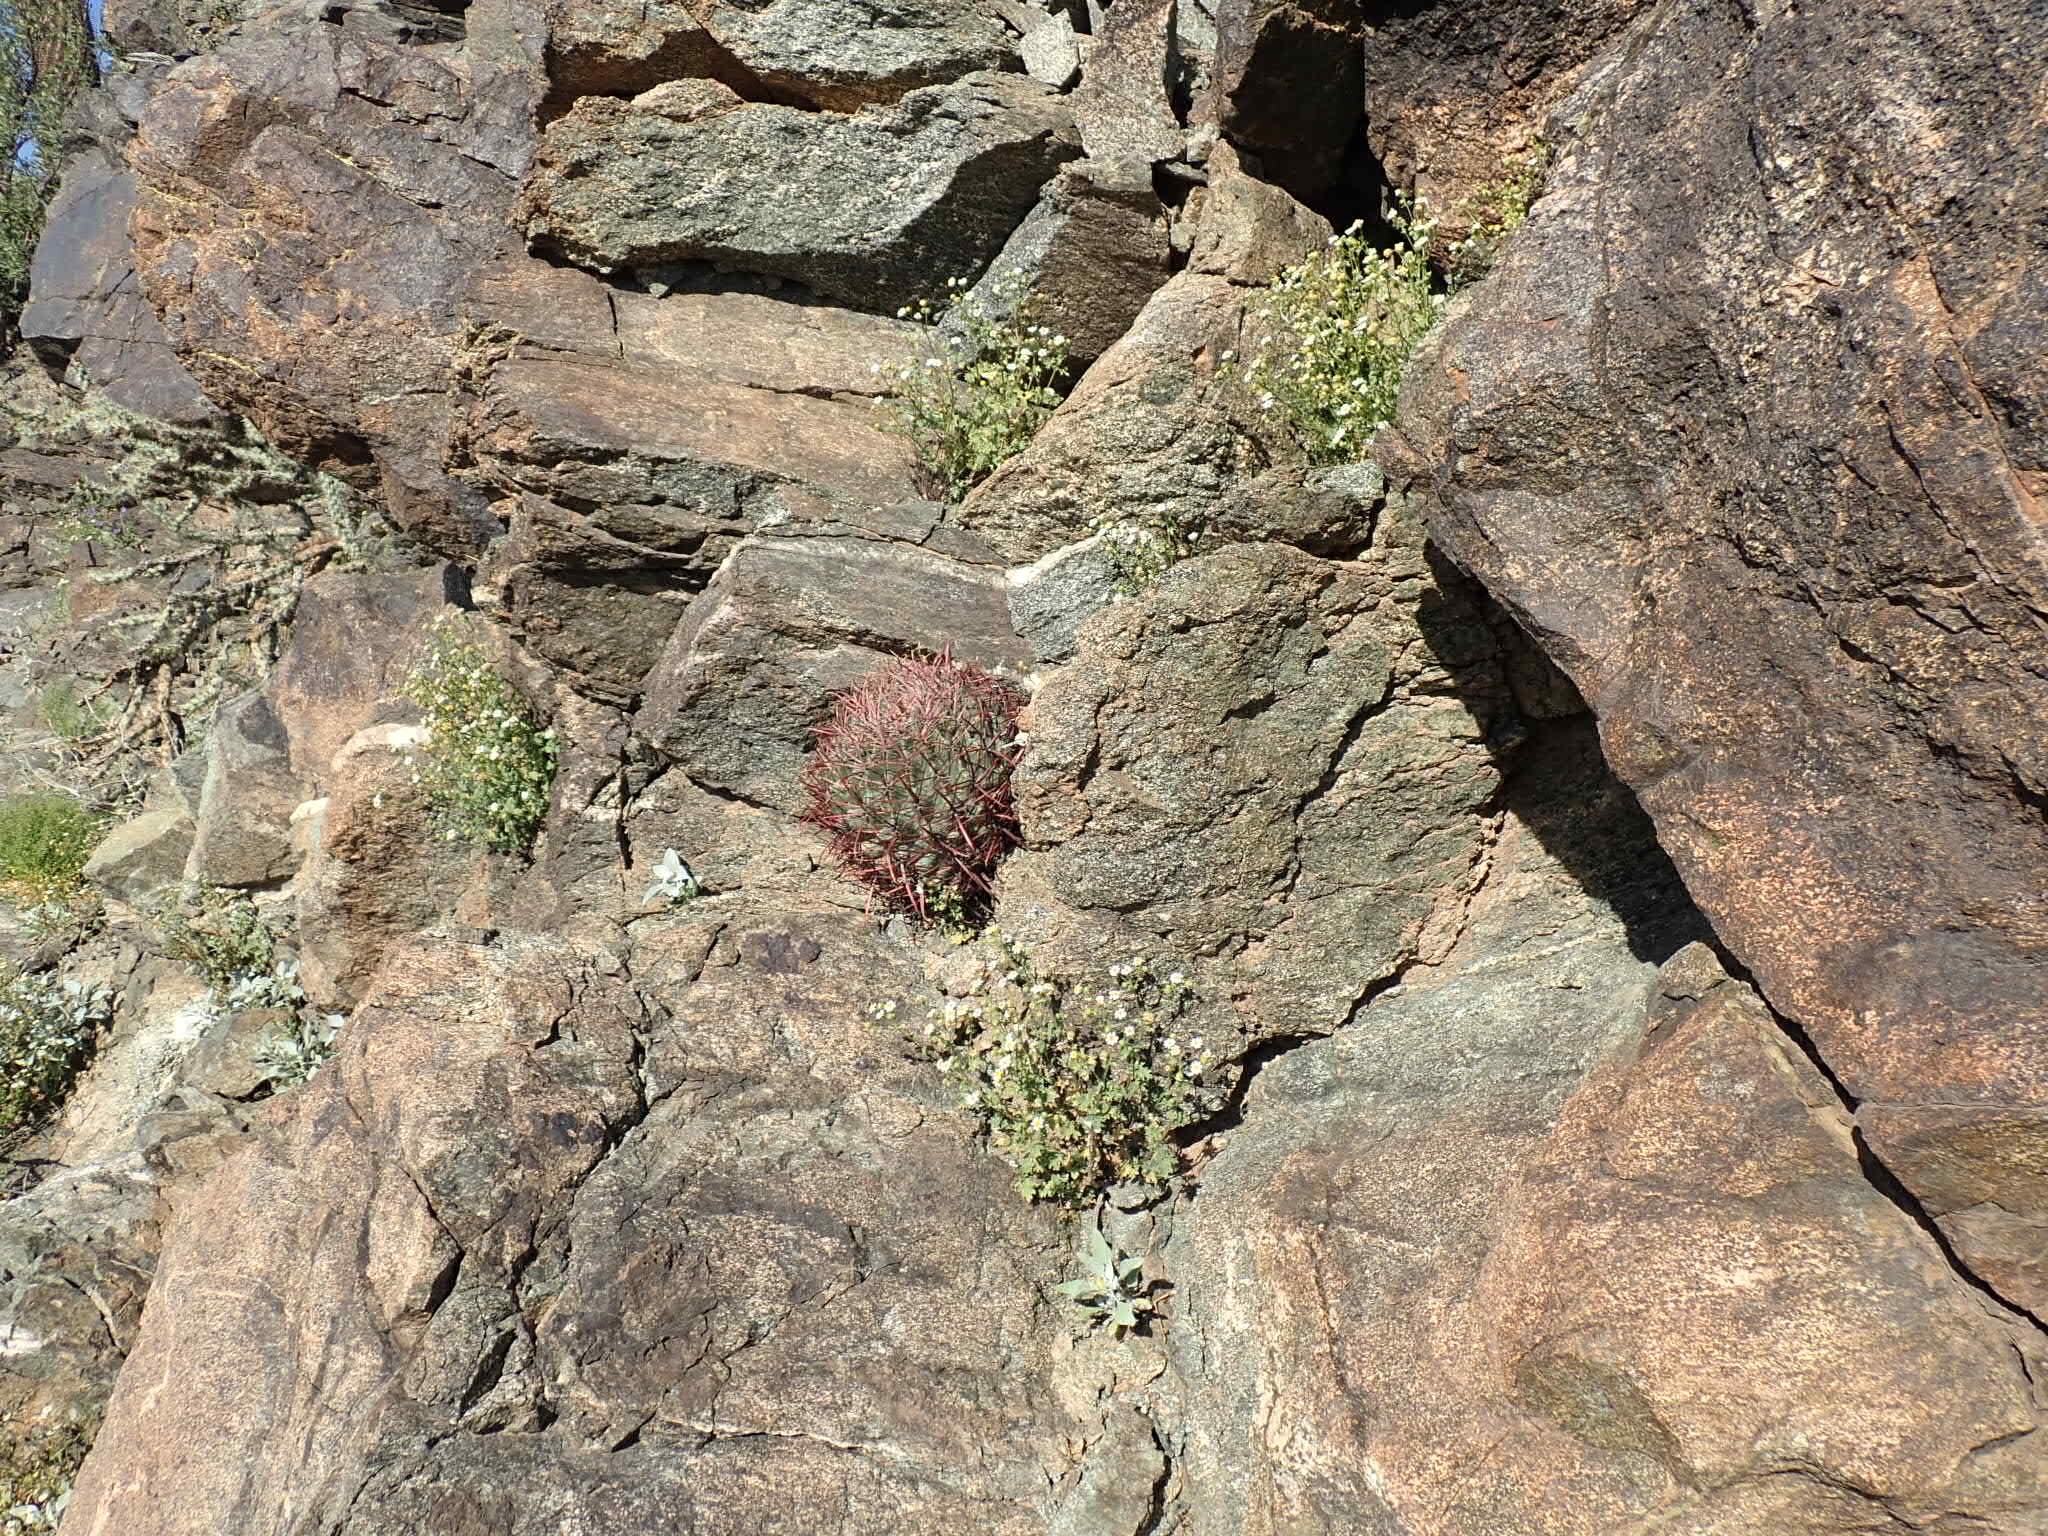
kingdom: Plantae
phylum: Tracheophyta
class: Magnoliopsida
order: Caryophyllales
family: Cactaceae
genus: Ferocactus
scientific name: Ferocactus cylindraceus
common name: California barrel cactus
